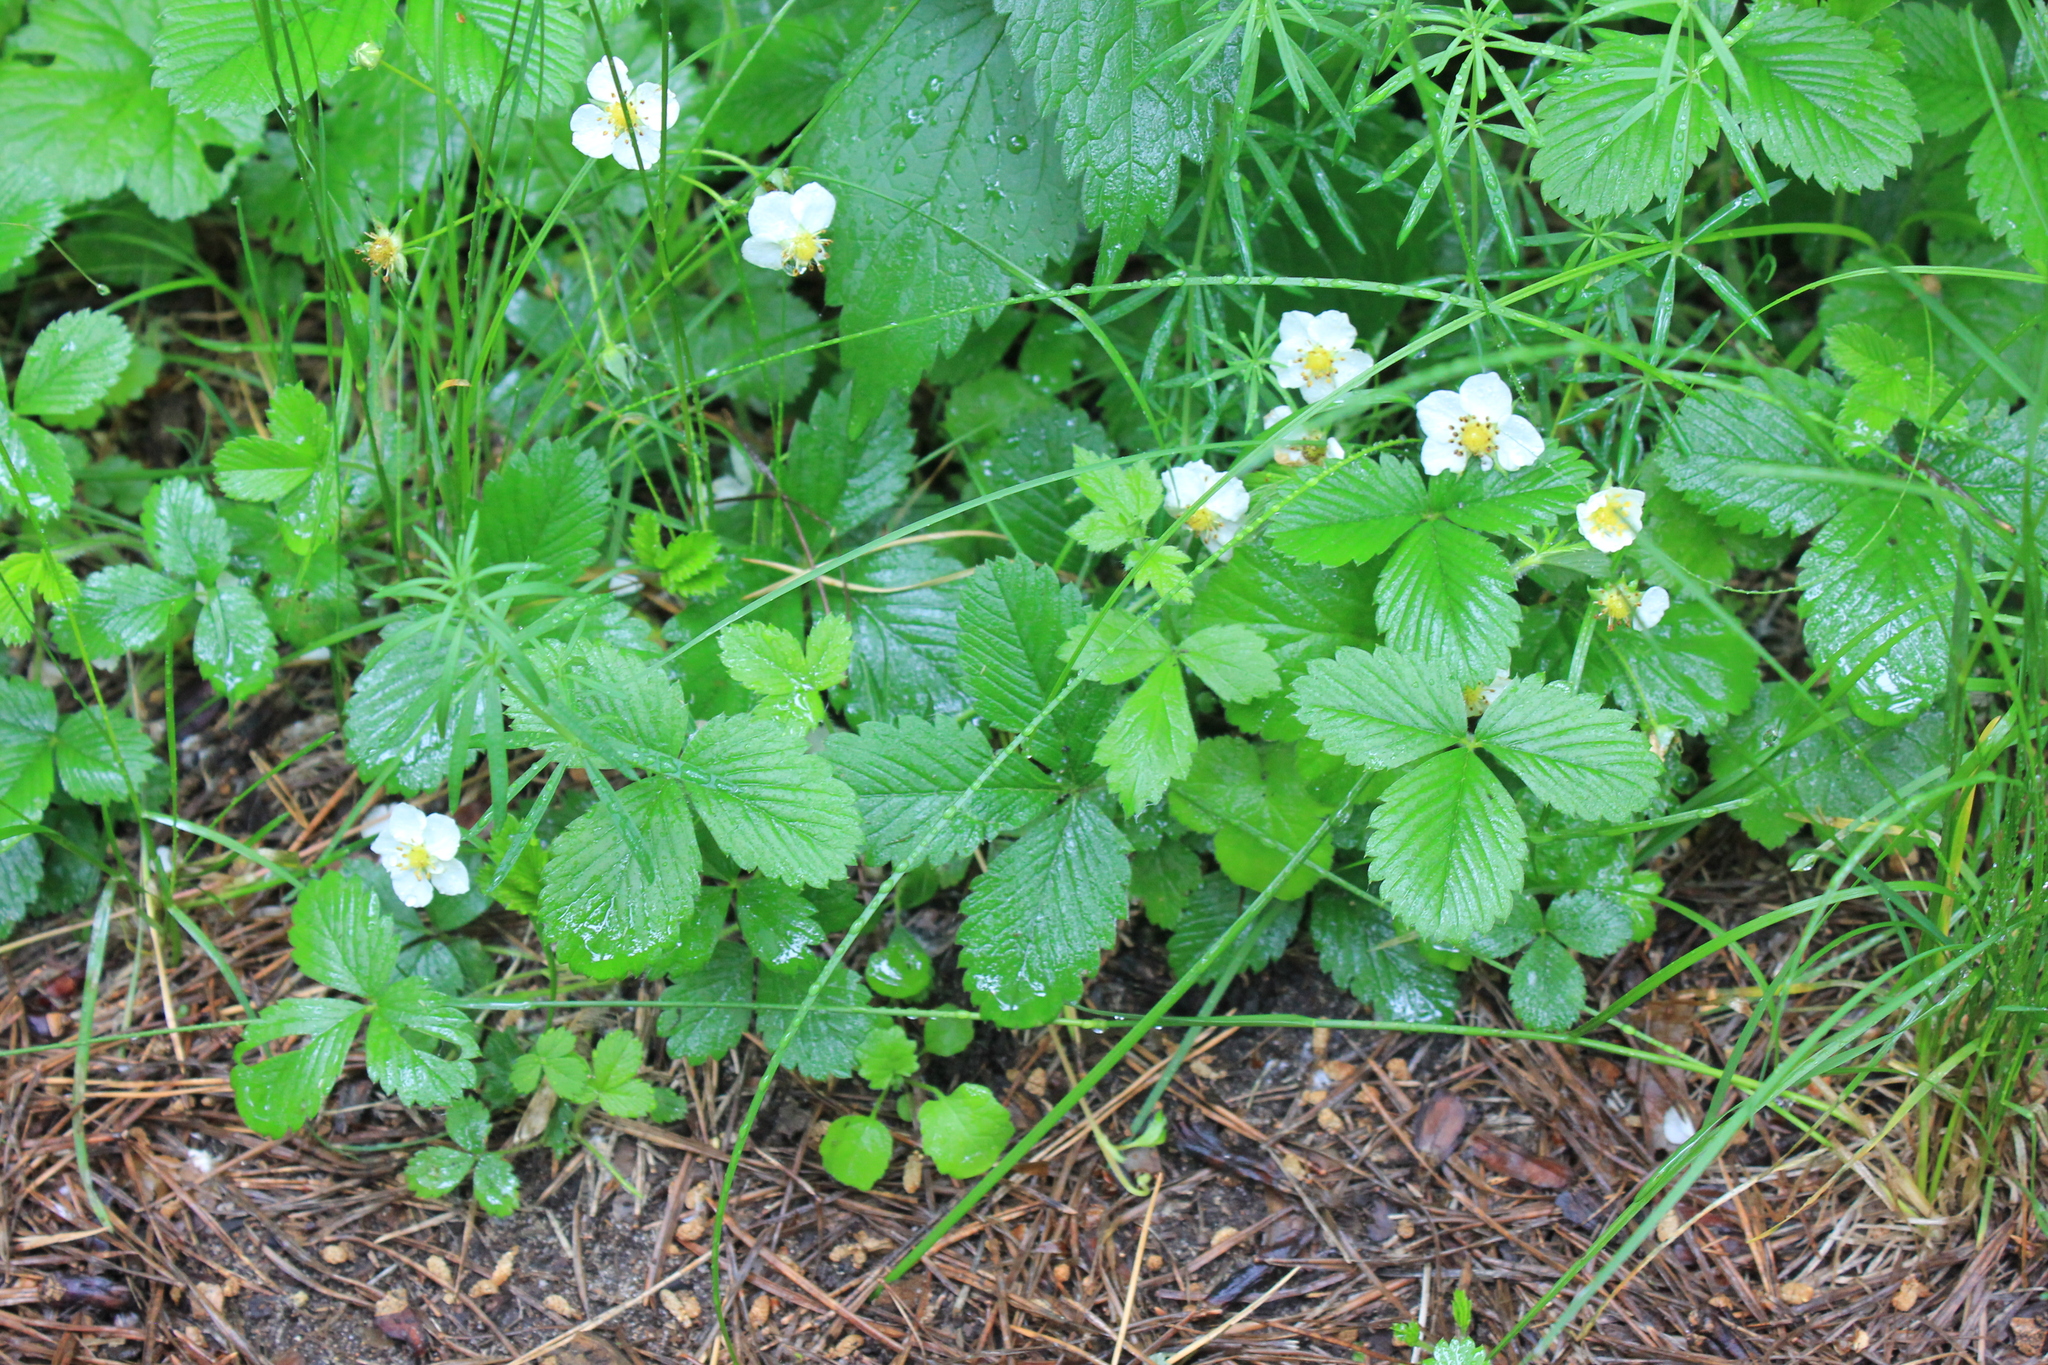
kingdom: Plantae
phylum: Tracheophyta
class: Magnoliopsida
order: Rosales
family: Rosaceae
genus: Fragaria
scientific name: Fragaria viridis
